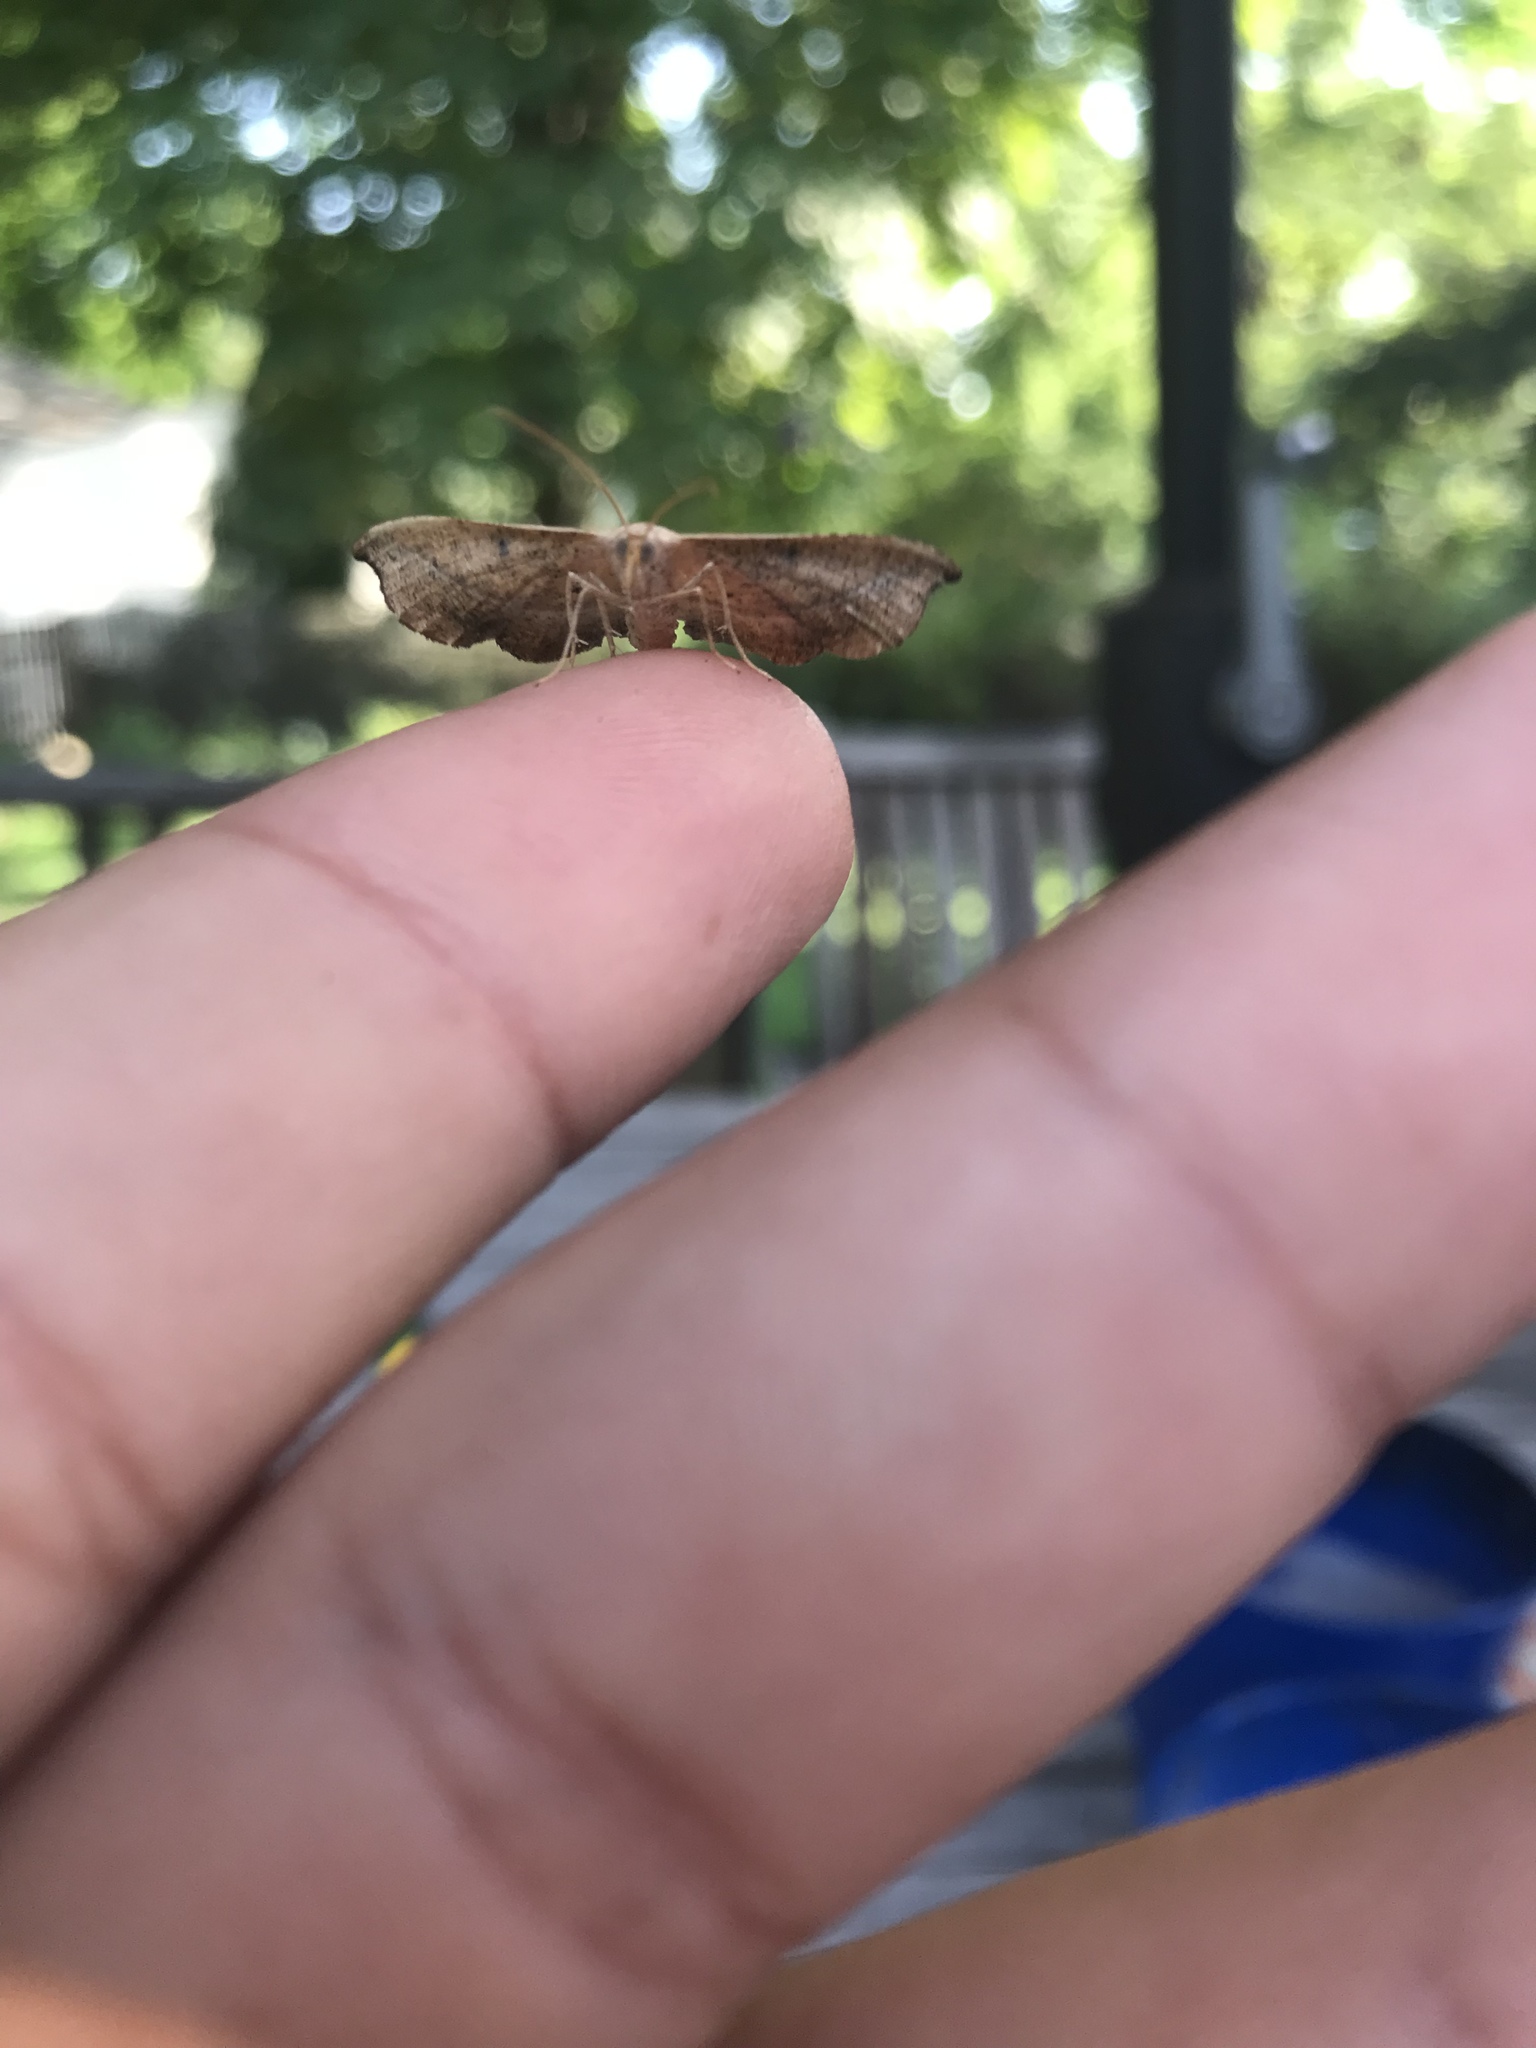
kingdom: Animalia
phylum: Arthropoda
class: Insecta
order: Lepidoptera
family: Geometridae
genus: Patalene
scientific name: Patalene olyzonaria
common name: Juniper geometer moth
